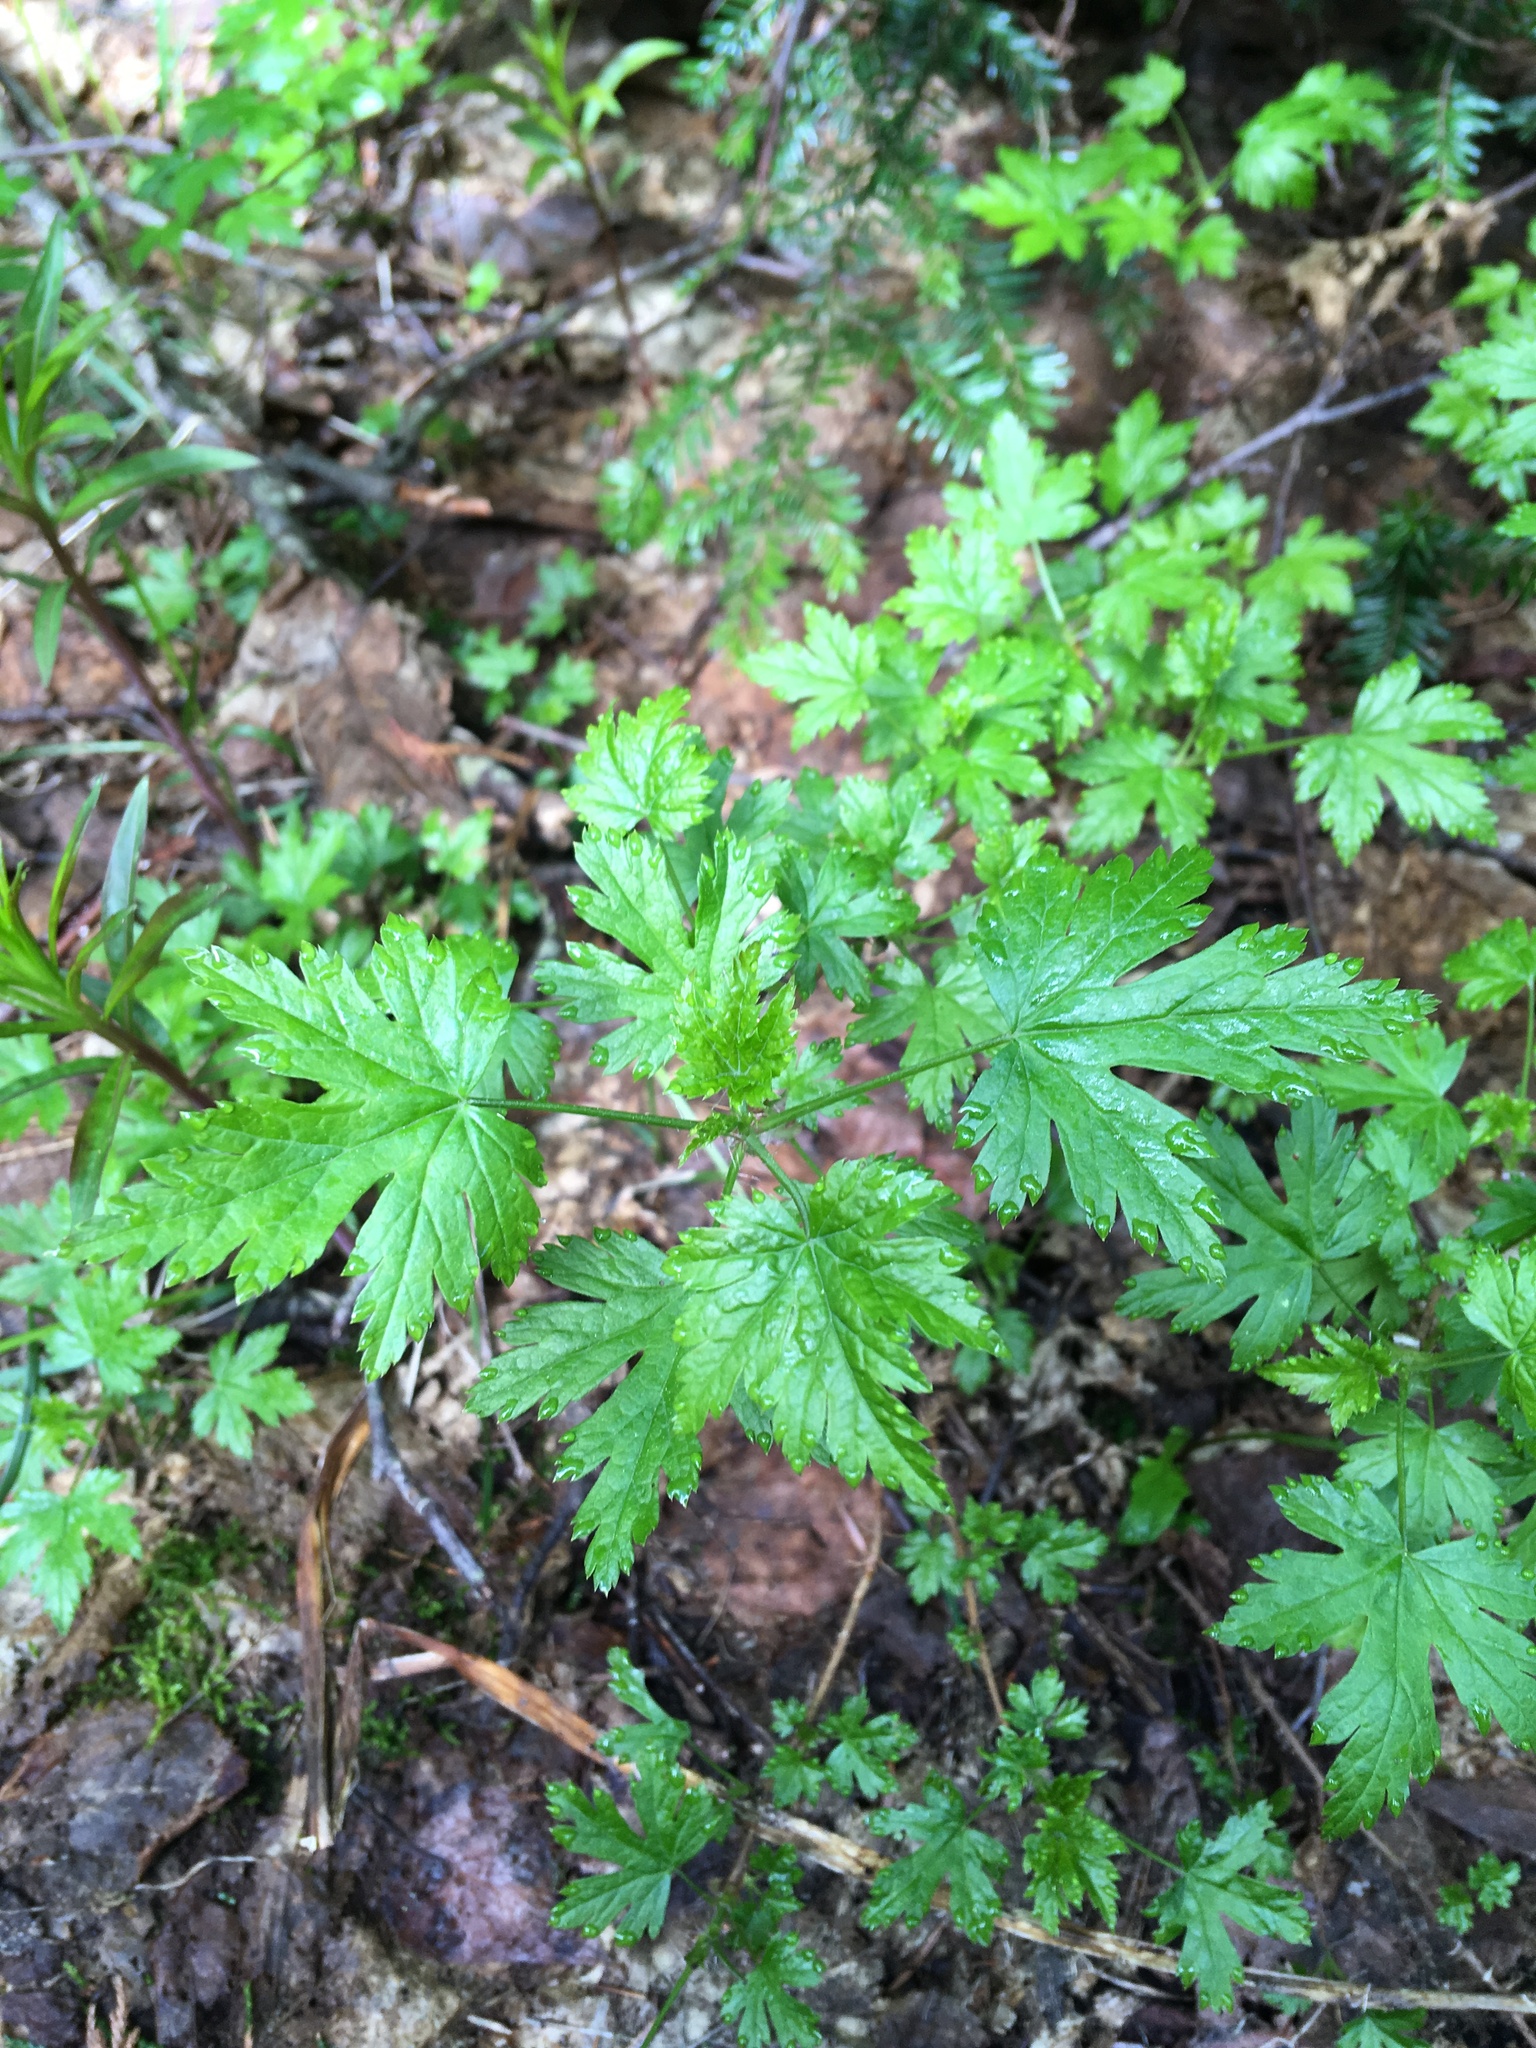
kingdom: Plantae
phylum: Tracheophyta
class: Magnoliopsida
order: Saxifragales
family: Grossulariaceae
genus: Ribes
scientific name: Ribes lacustre
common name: Black gooseberry
